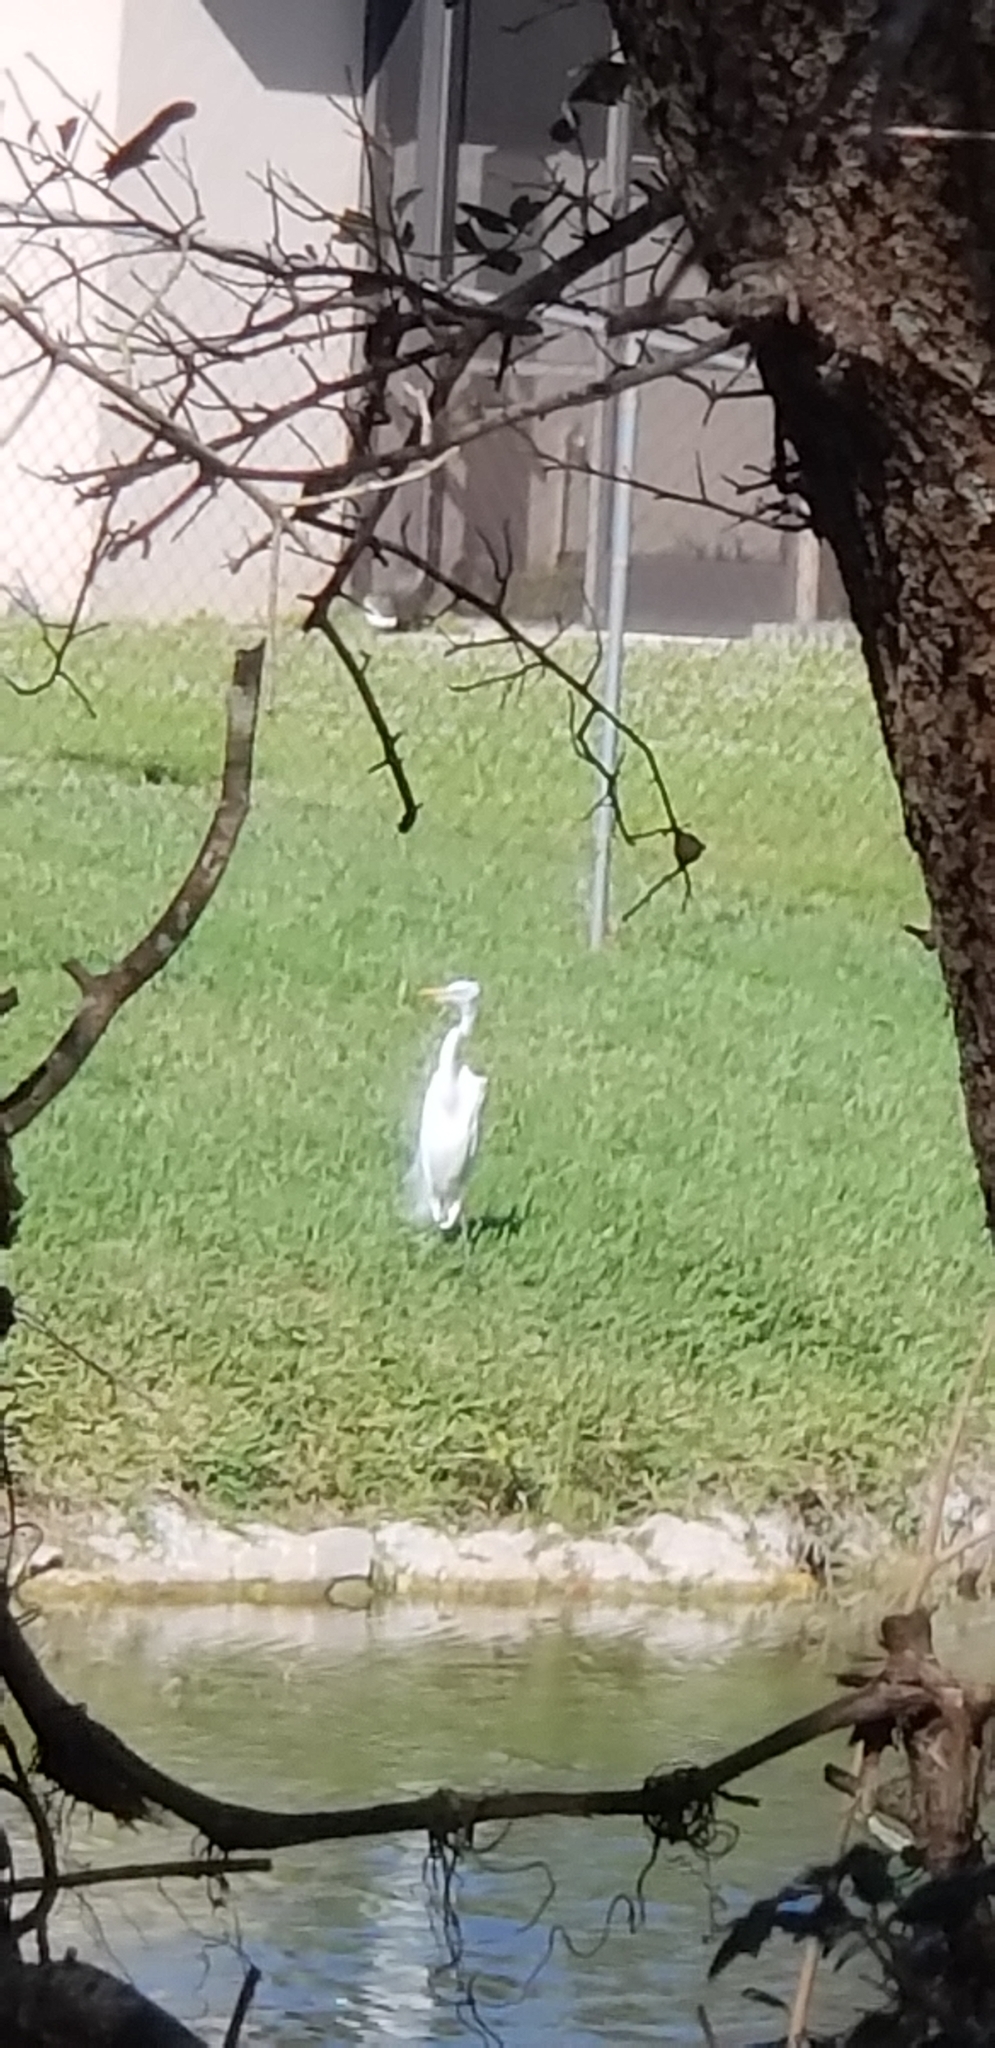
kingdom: Animalia
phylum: Chordata
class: Aves
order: Pelecaniformes
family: Ardeidae
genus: Ardea
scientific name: Ardea alba
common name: Great egret
